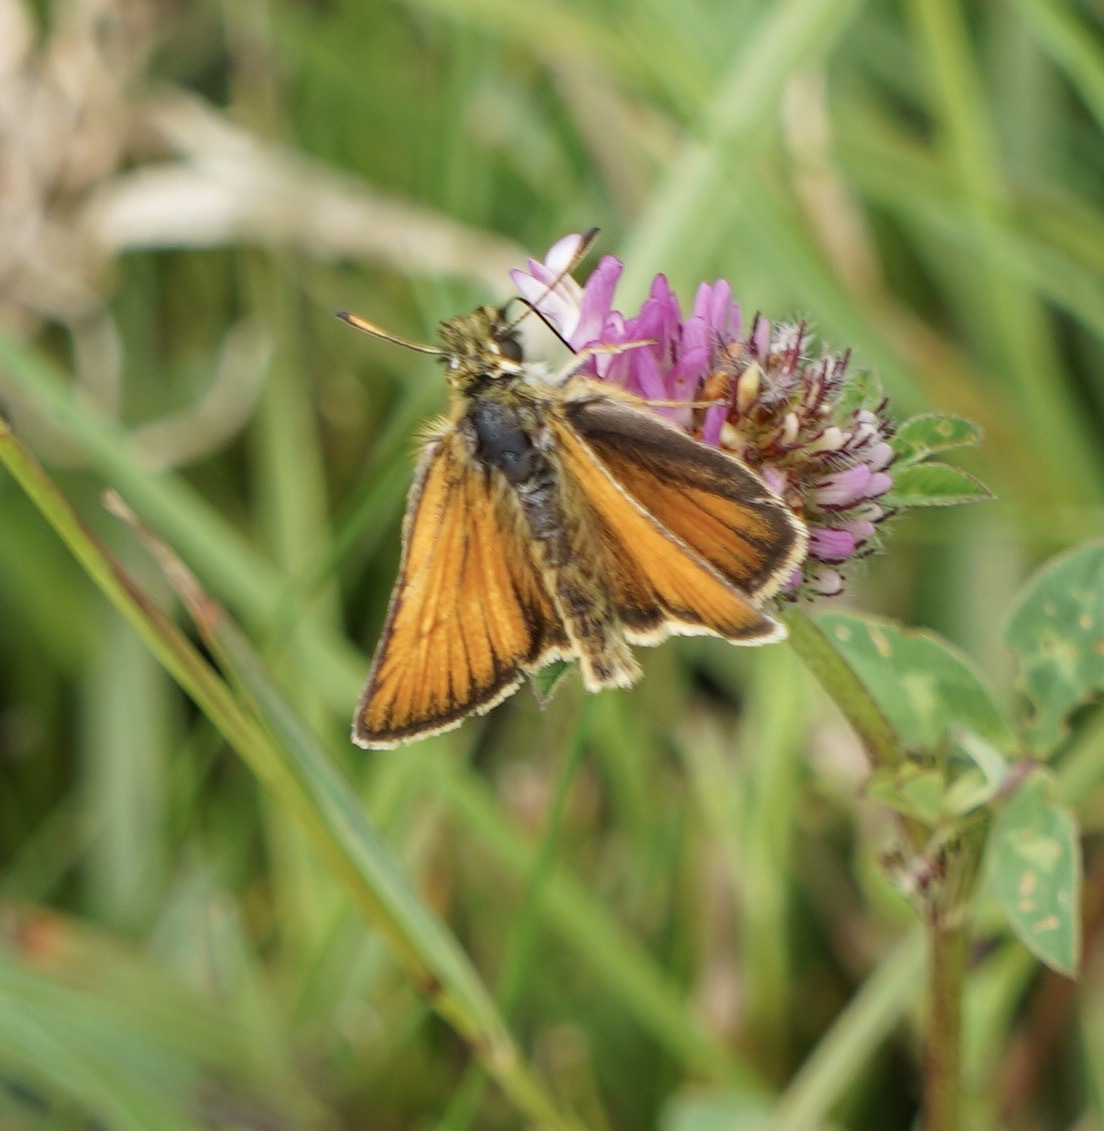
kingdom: Animalia
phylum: Arthropoda
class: Insecta
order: Lepidoptera
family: Hesperiidae
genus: Thymelicus
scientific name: Thymelicus lineola
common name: Essex skipper
